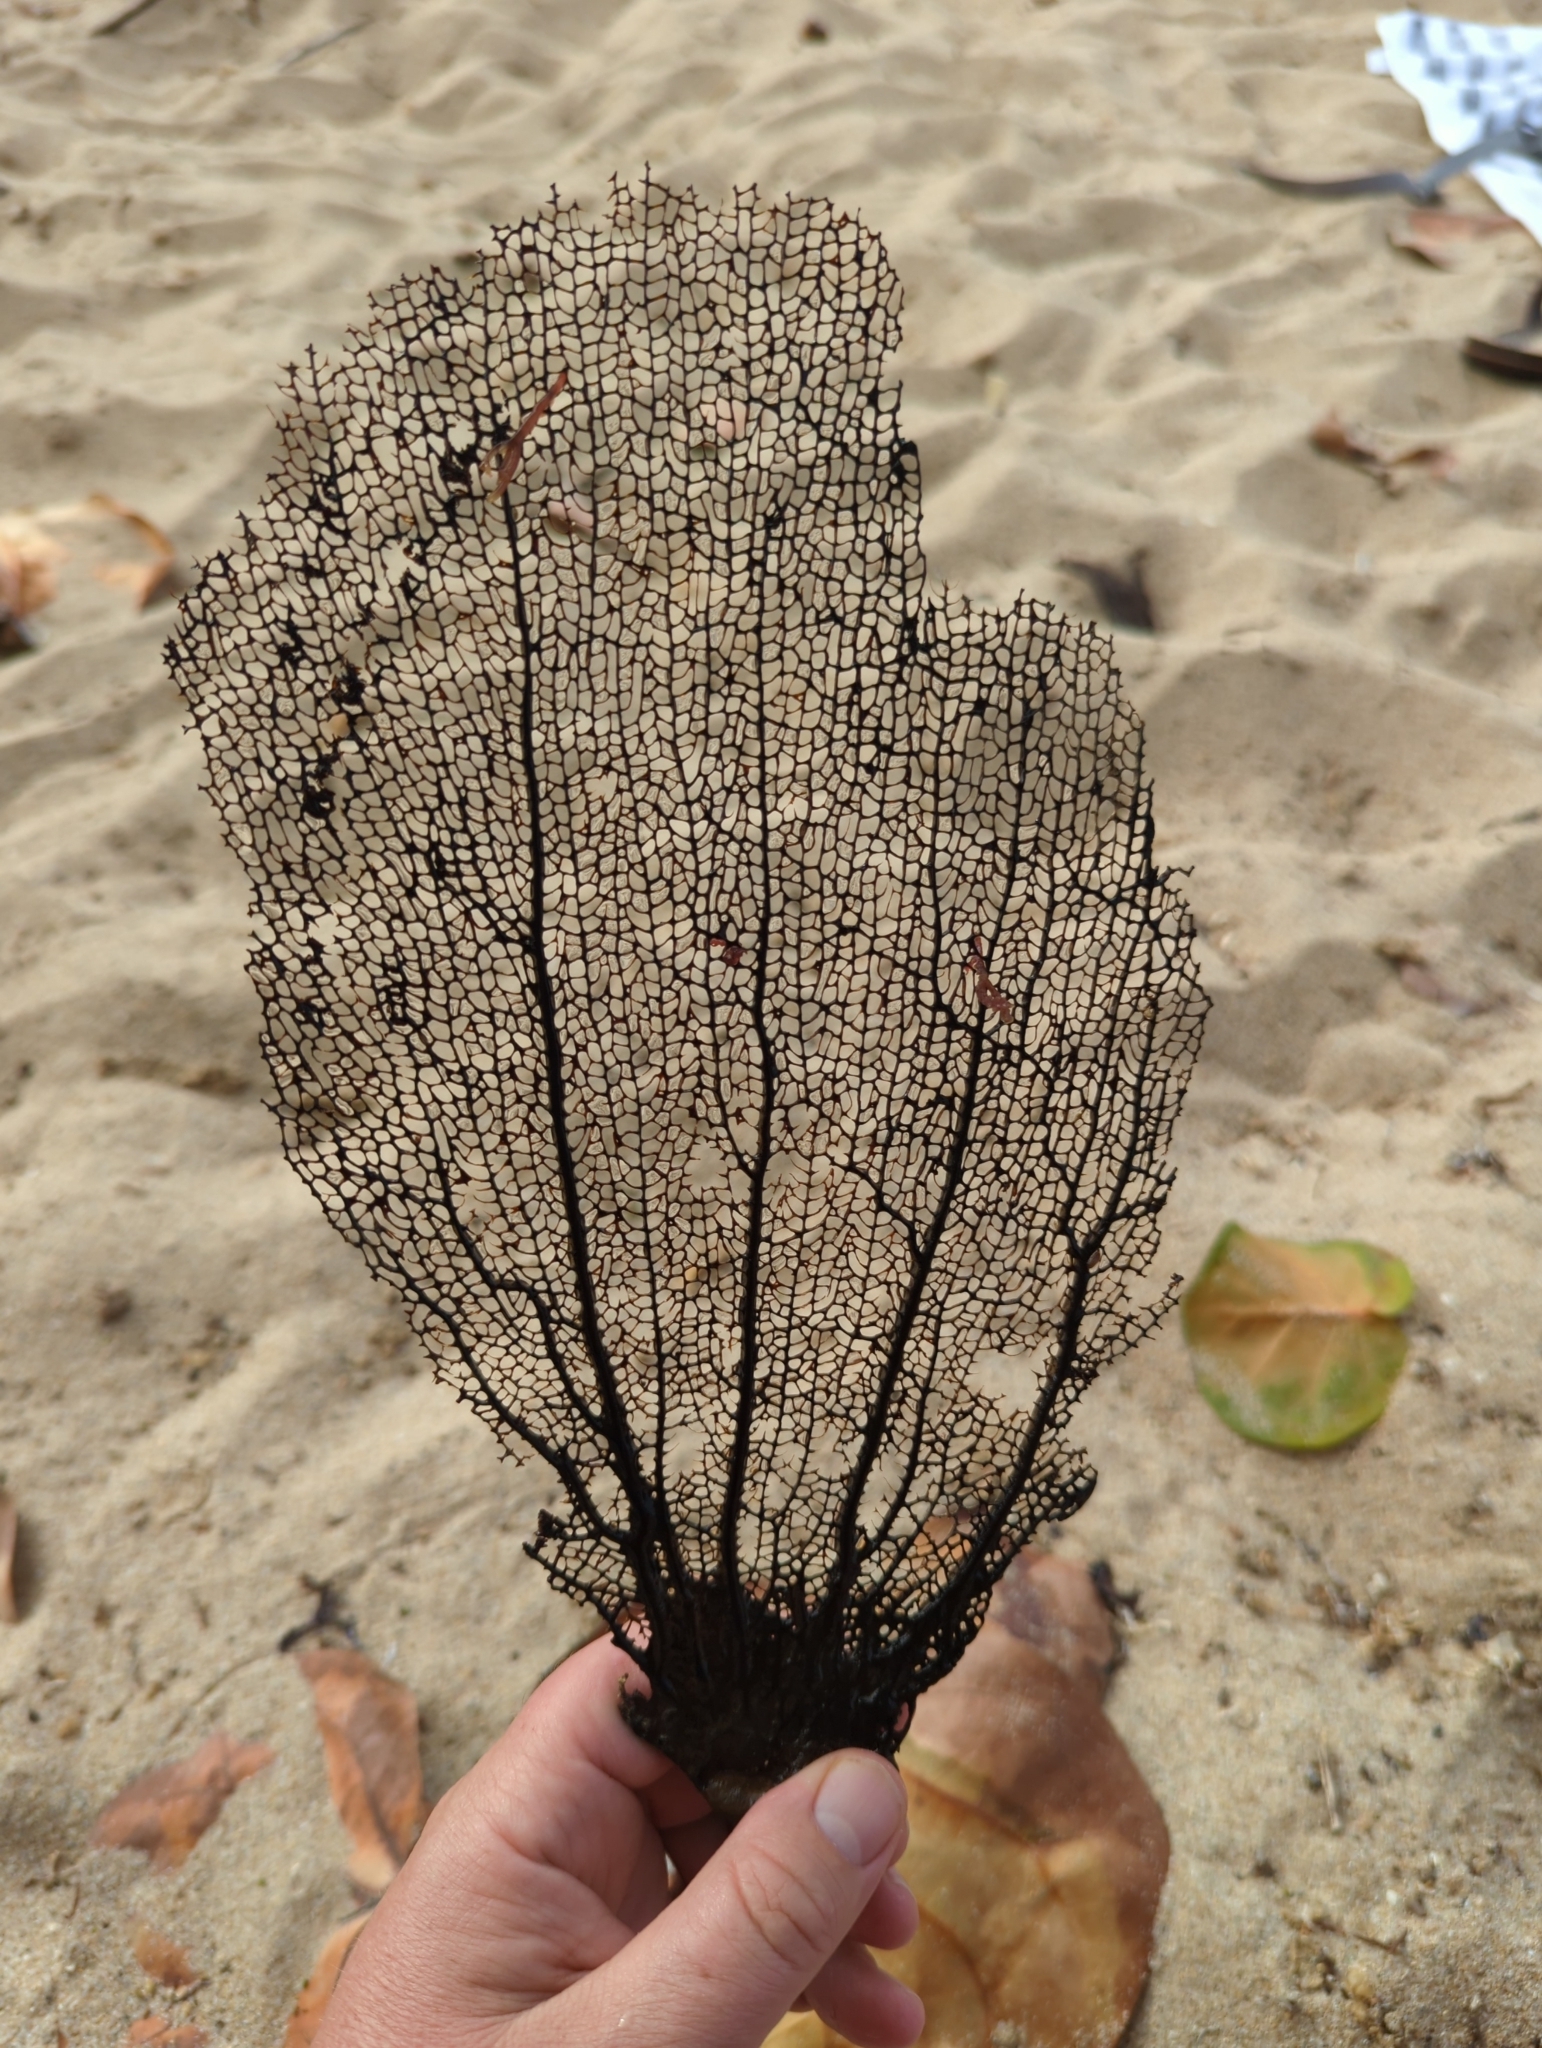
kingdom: Animalia
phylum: Cnidaria
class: Anthozoa
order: Malacalcyonacea
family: Gorgoniidae
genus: Gorgonia
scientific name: Gorgonia ventalina
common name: Common sea fan
